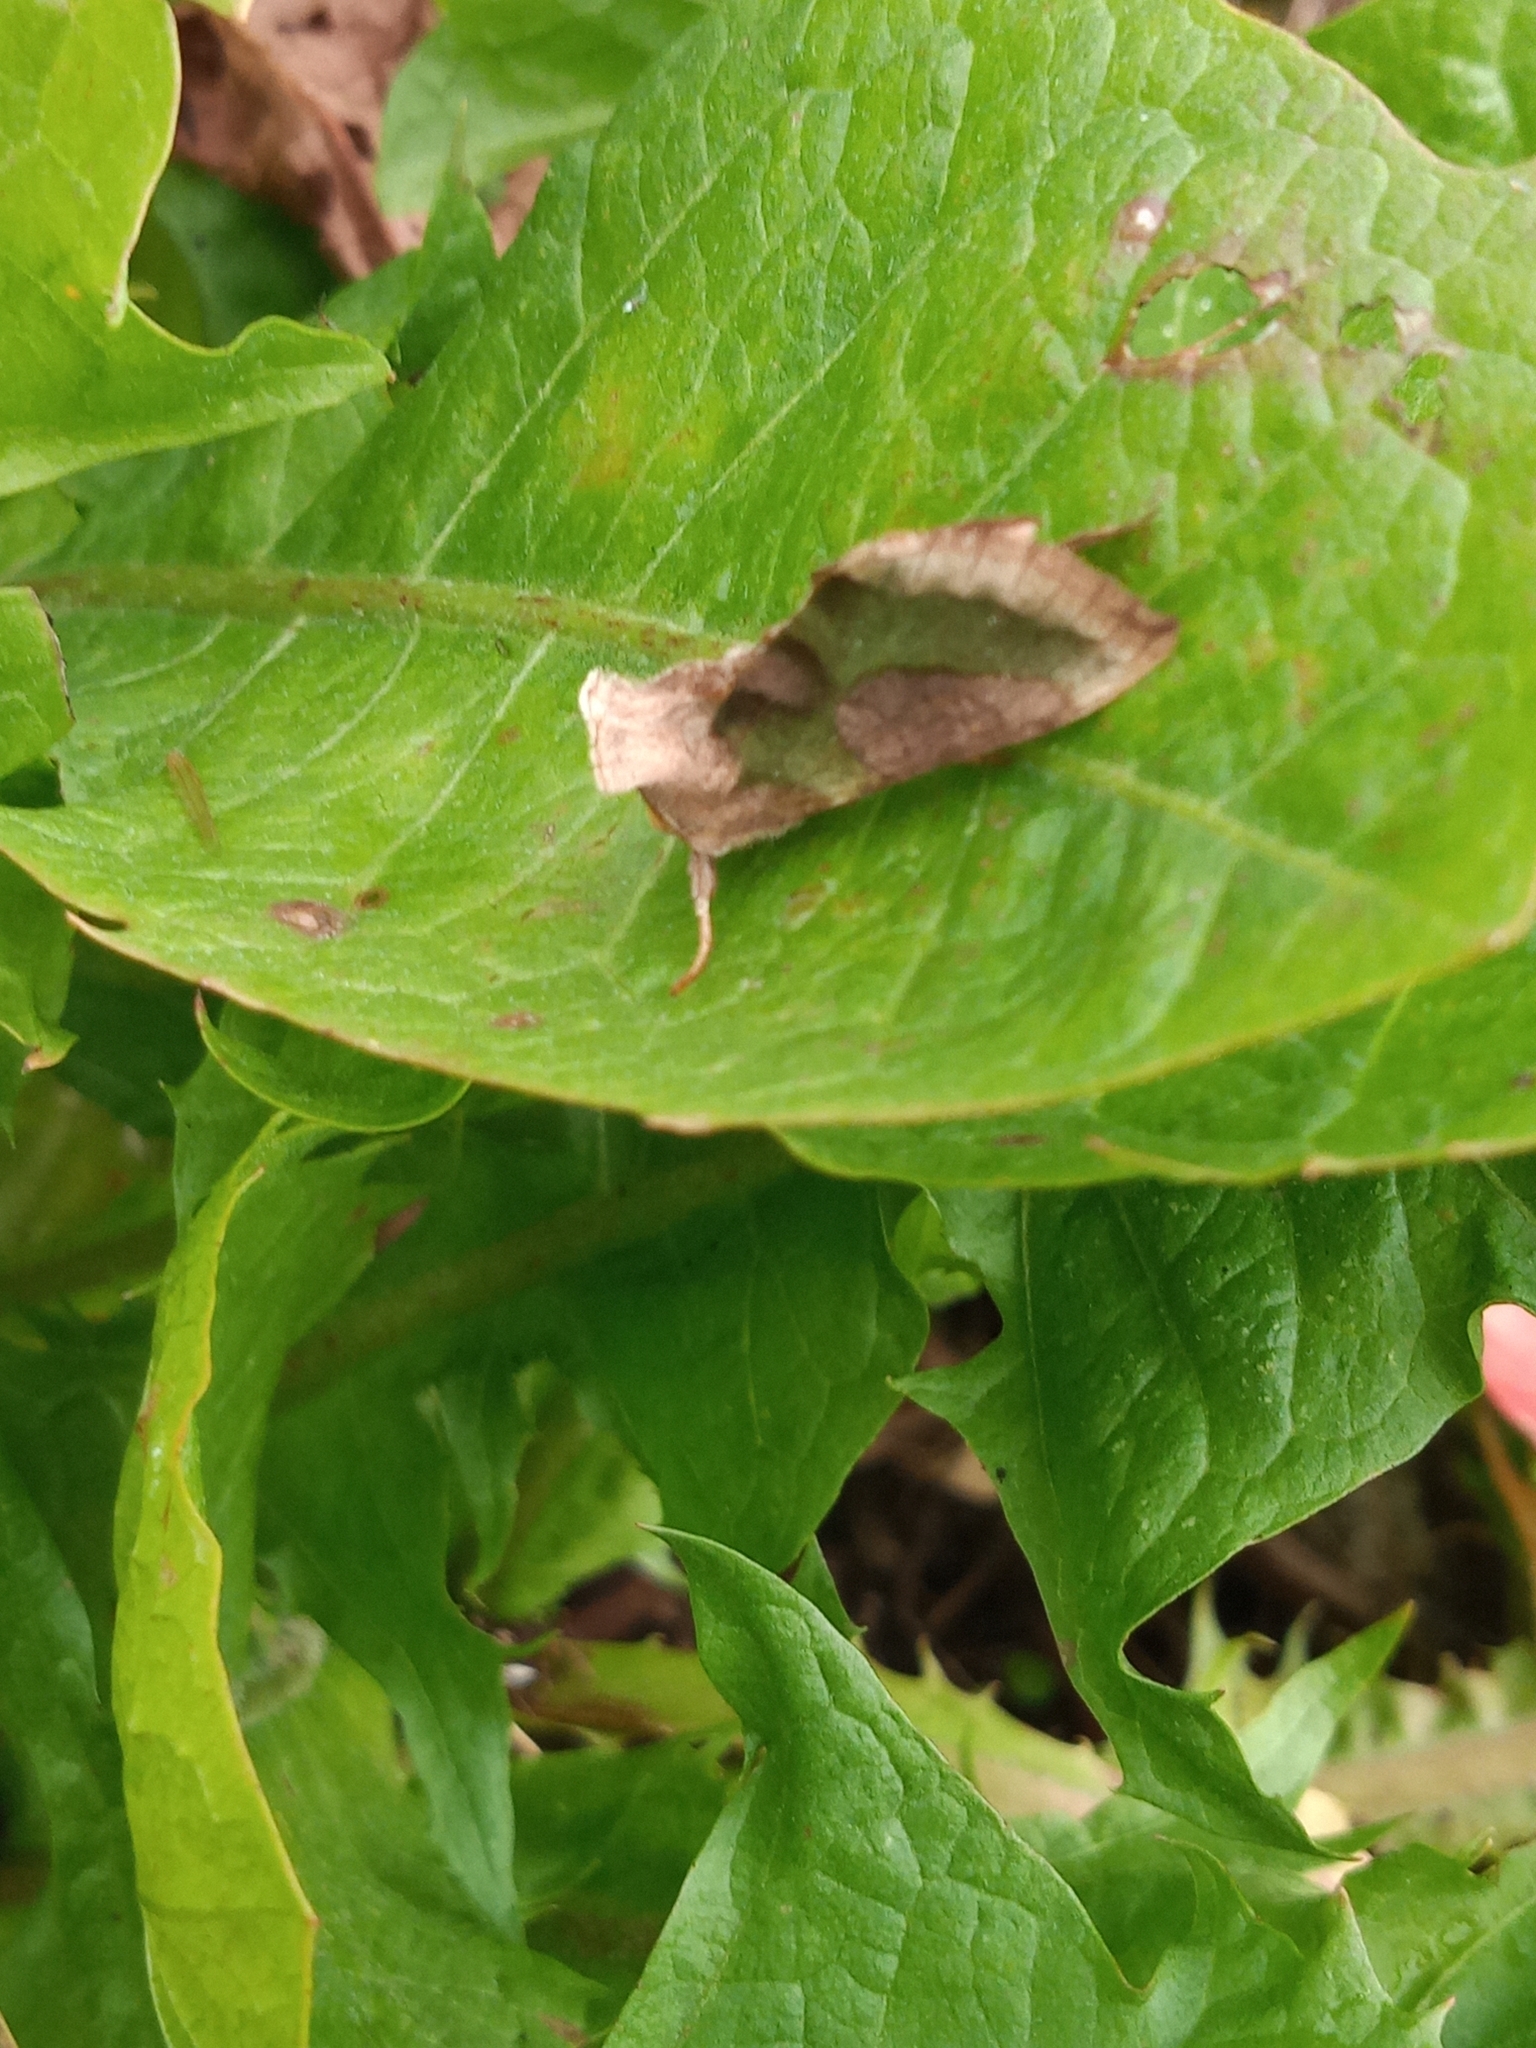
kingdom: Animalia
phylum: Arthropoda
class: Insecta
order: Lepidoptera
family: Noctuidae
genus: Diachrysia
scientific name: Diachrysia chrysitis
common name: Burnished brass
